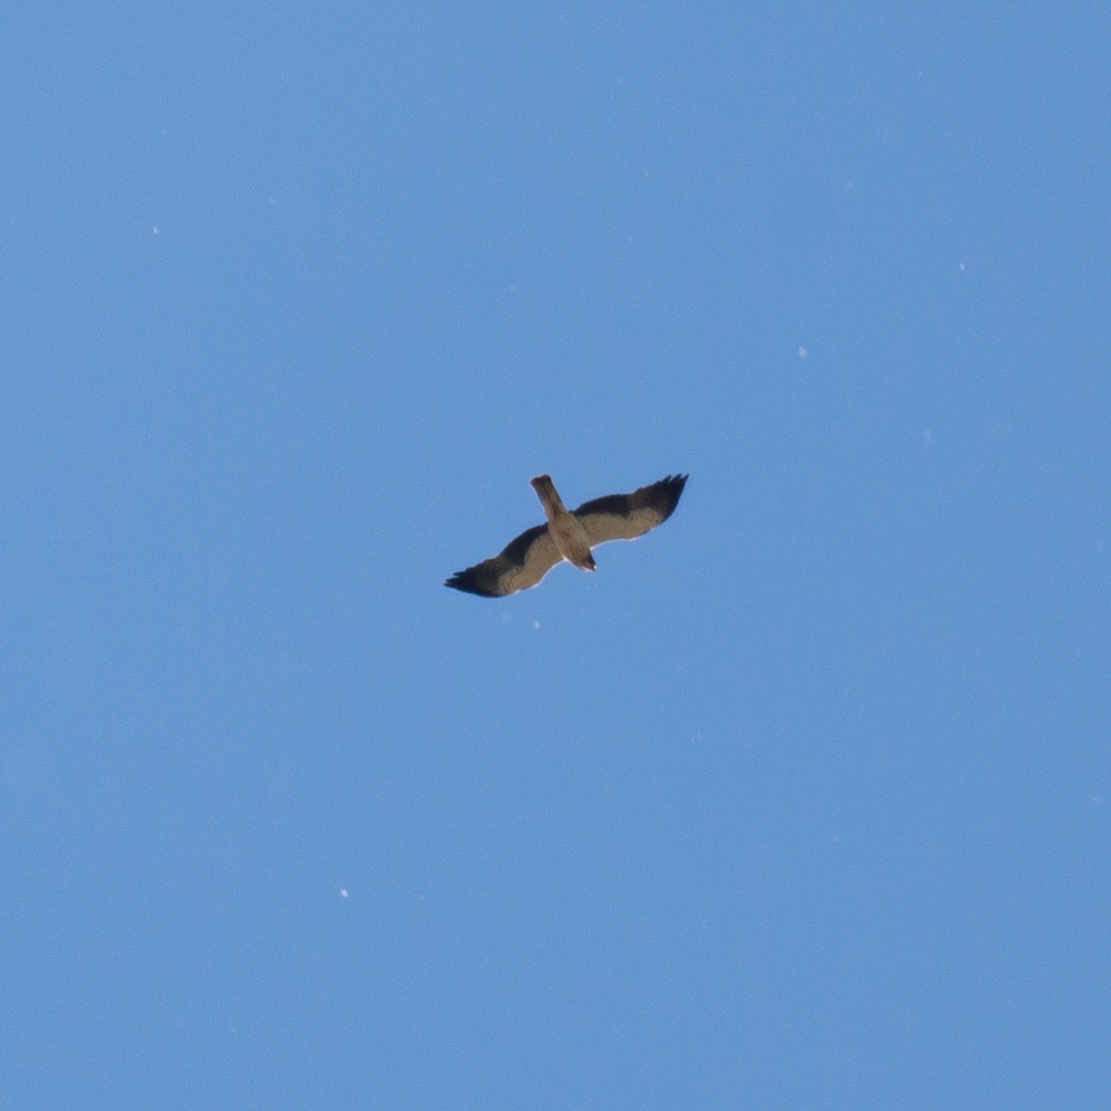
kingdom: Animalia
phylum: Chordata
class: Aves
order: Accipitriformes
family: Accipitridae
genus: Hieraaetus
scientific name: Hieraaetus pennatus
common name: Booted eagle
